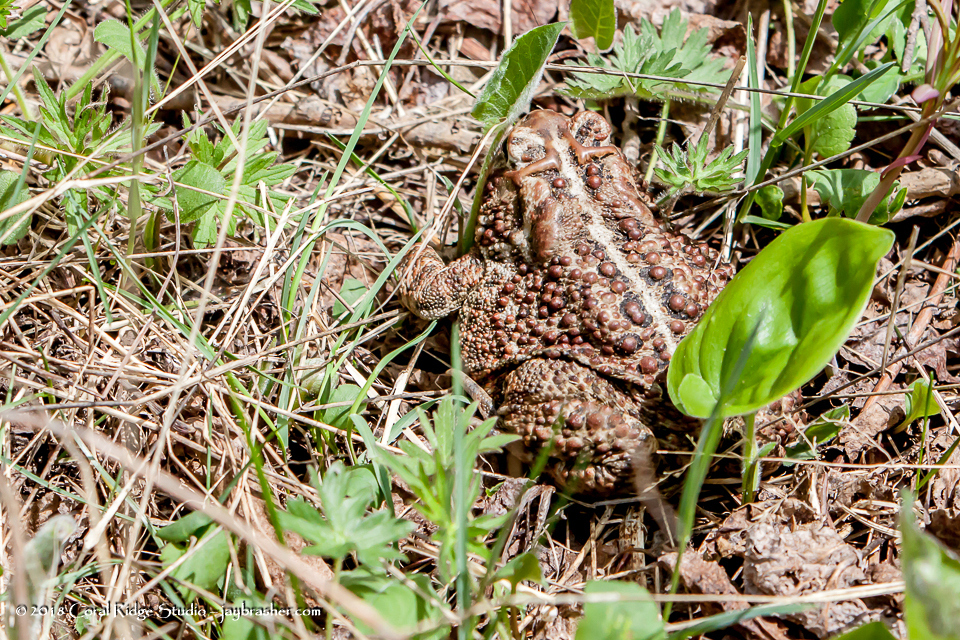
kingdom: Animalia
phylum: Chordata
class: Amphibia
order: Anura
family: Bufonidae
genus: Anaxyrus
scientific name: Anaxyrus americanus
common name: American toad
